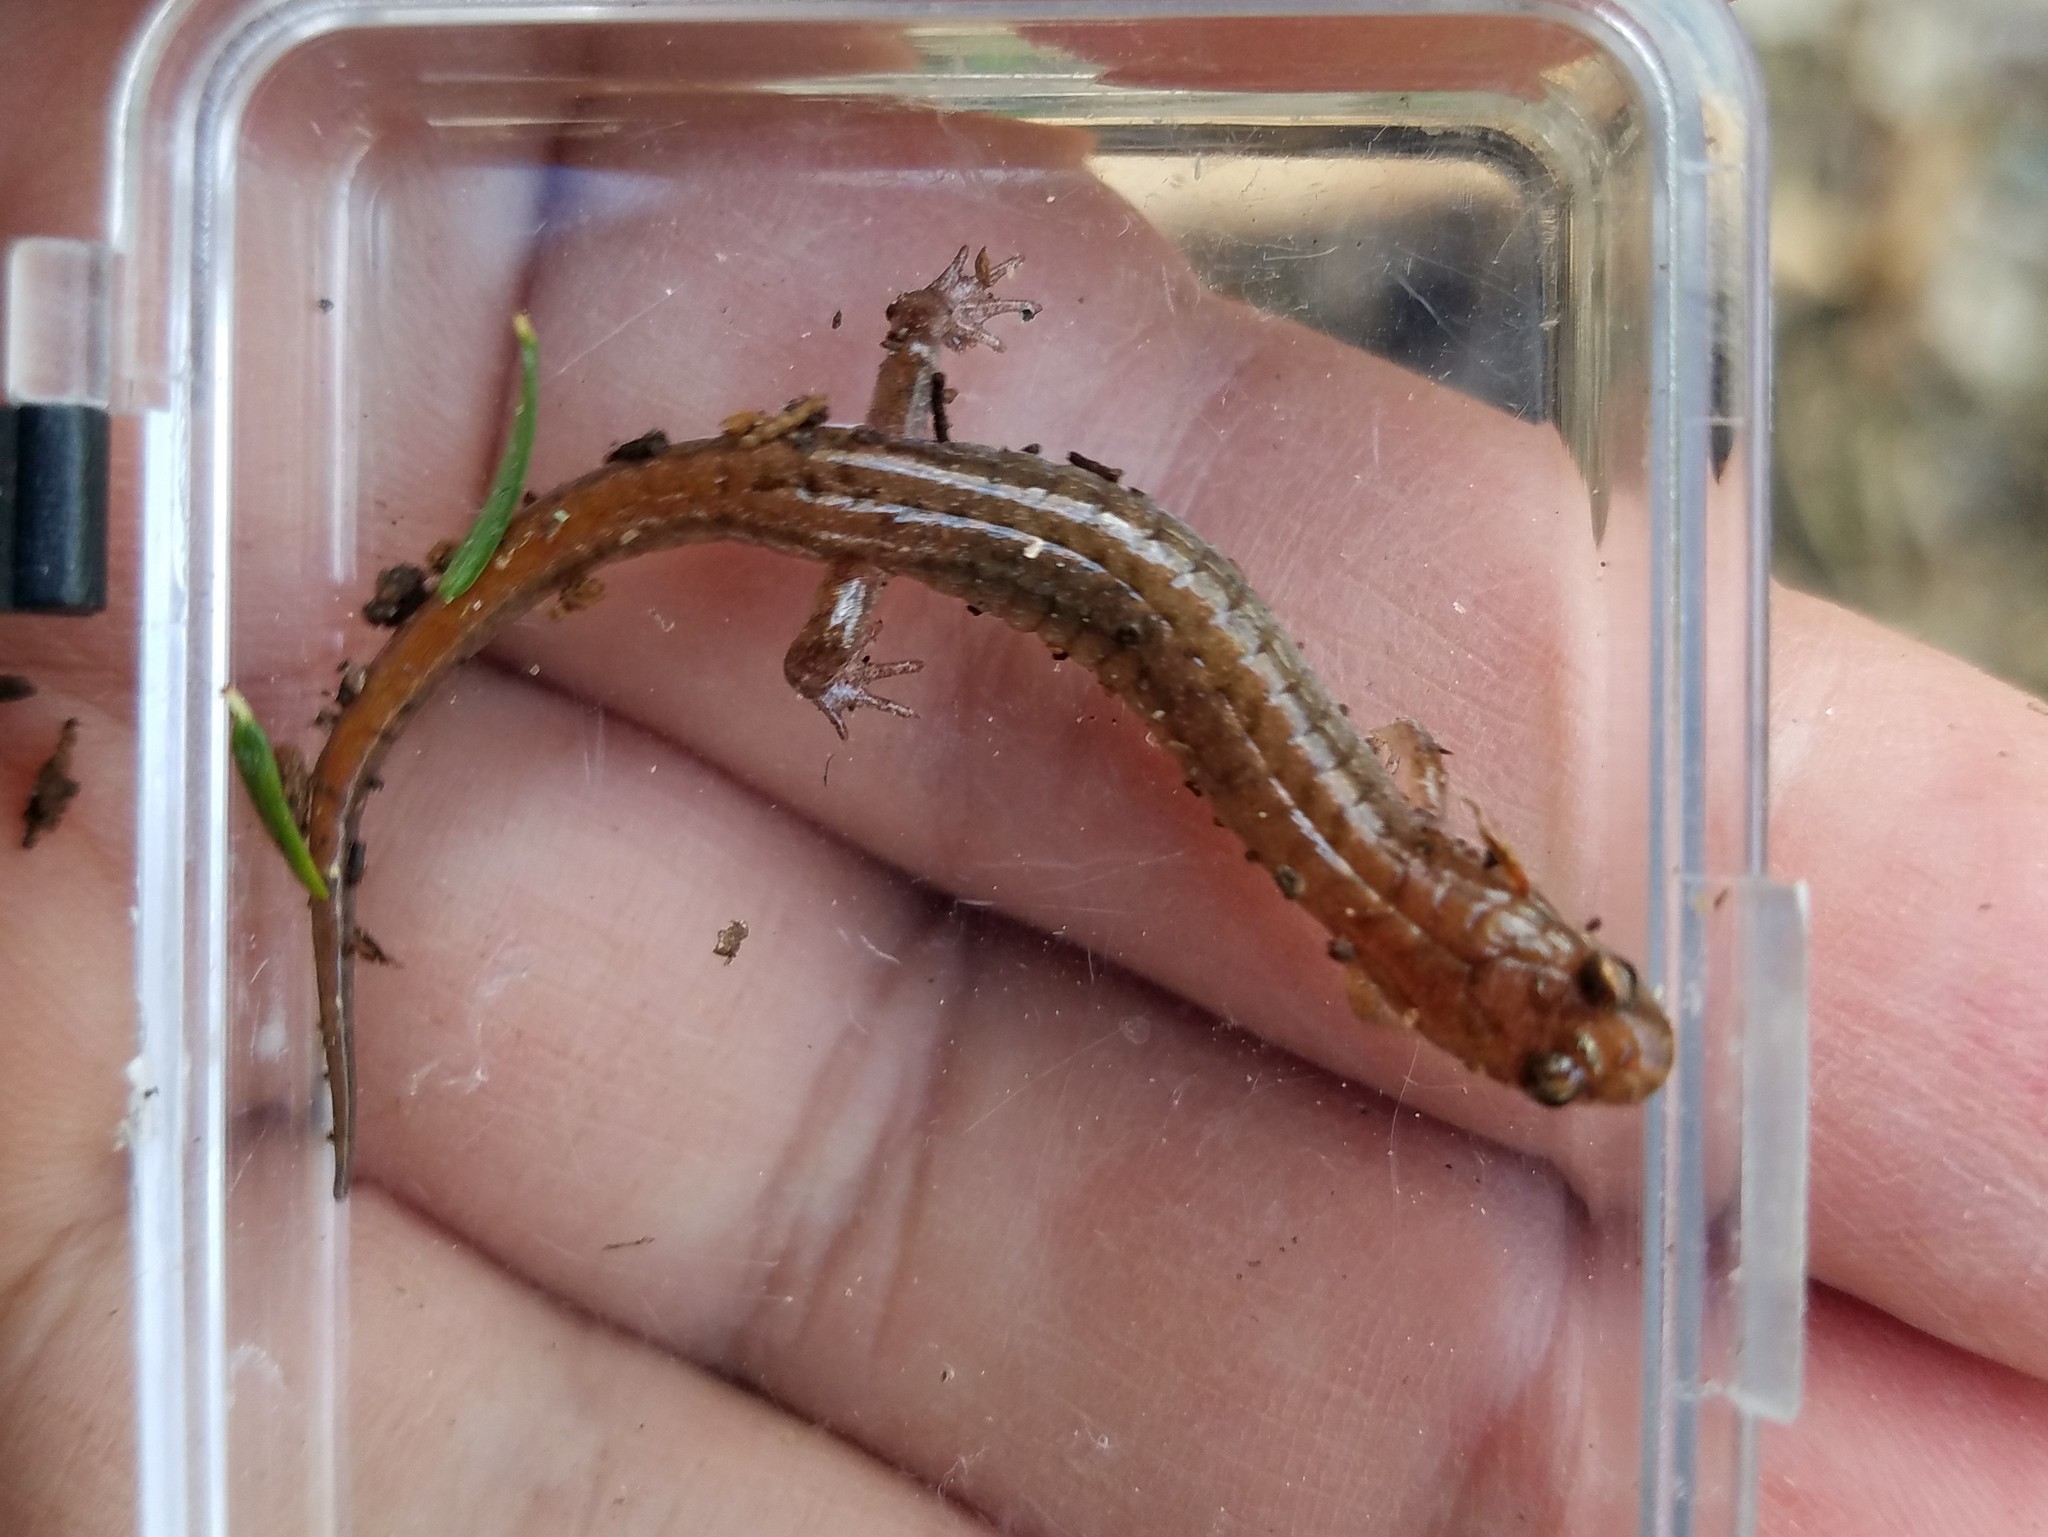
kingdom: Animalia
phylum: Chordata
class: Amphibia
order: Caudata
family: Plethodontidae
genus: Desmognathus
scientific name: Desmognathus aeneus
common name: Seepage salamander
